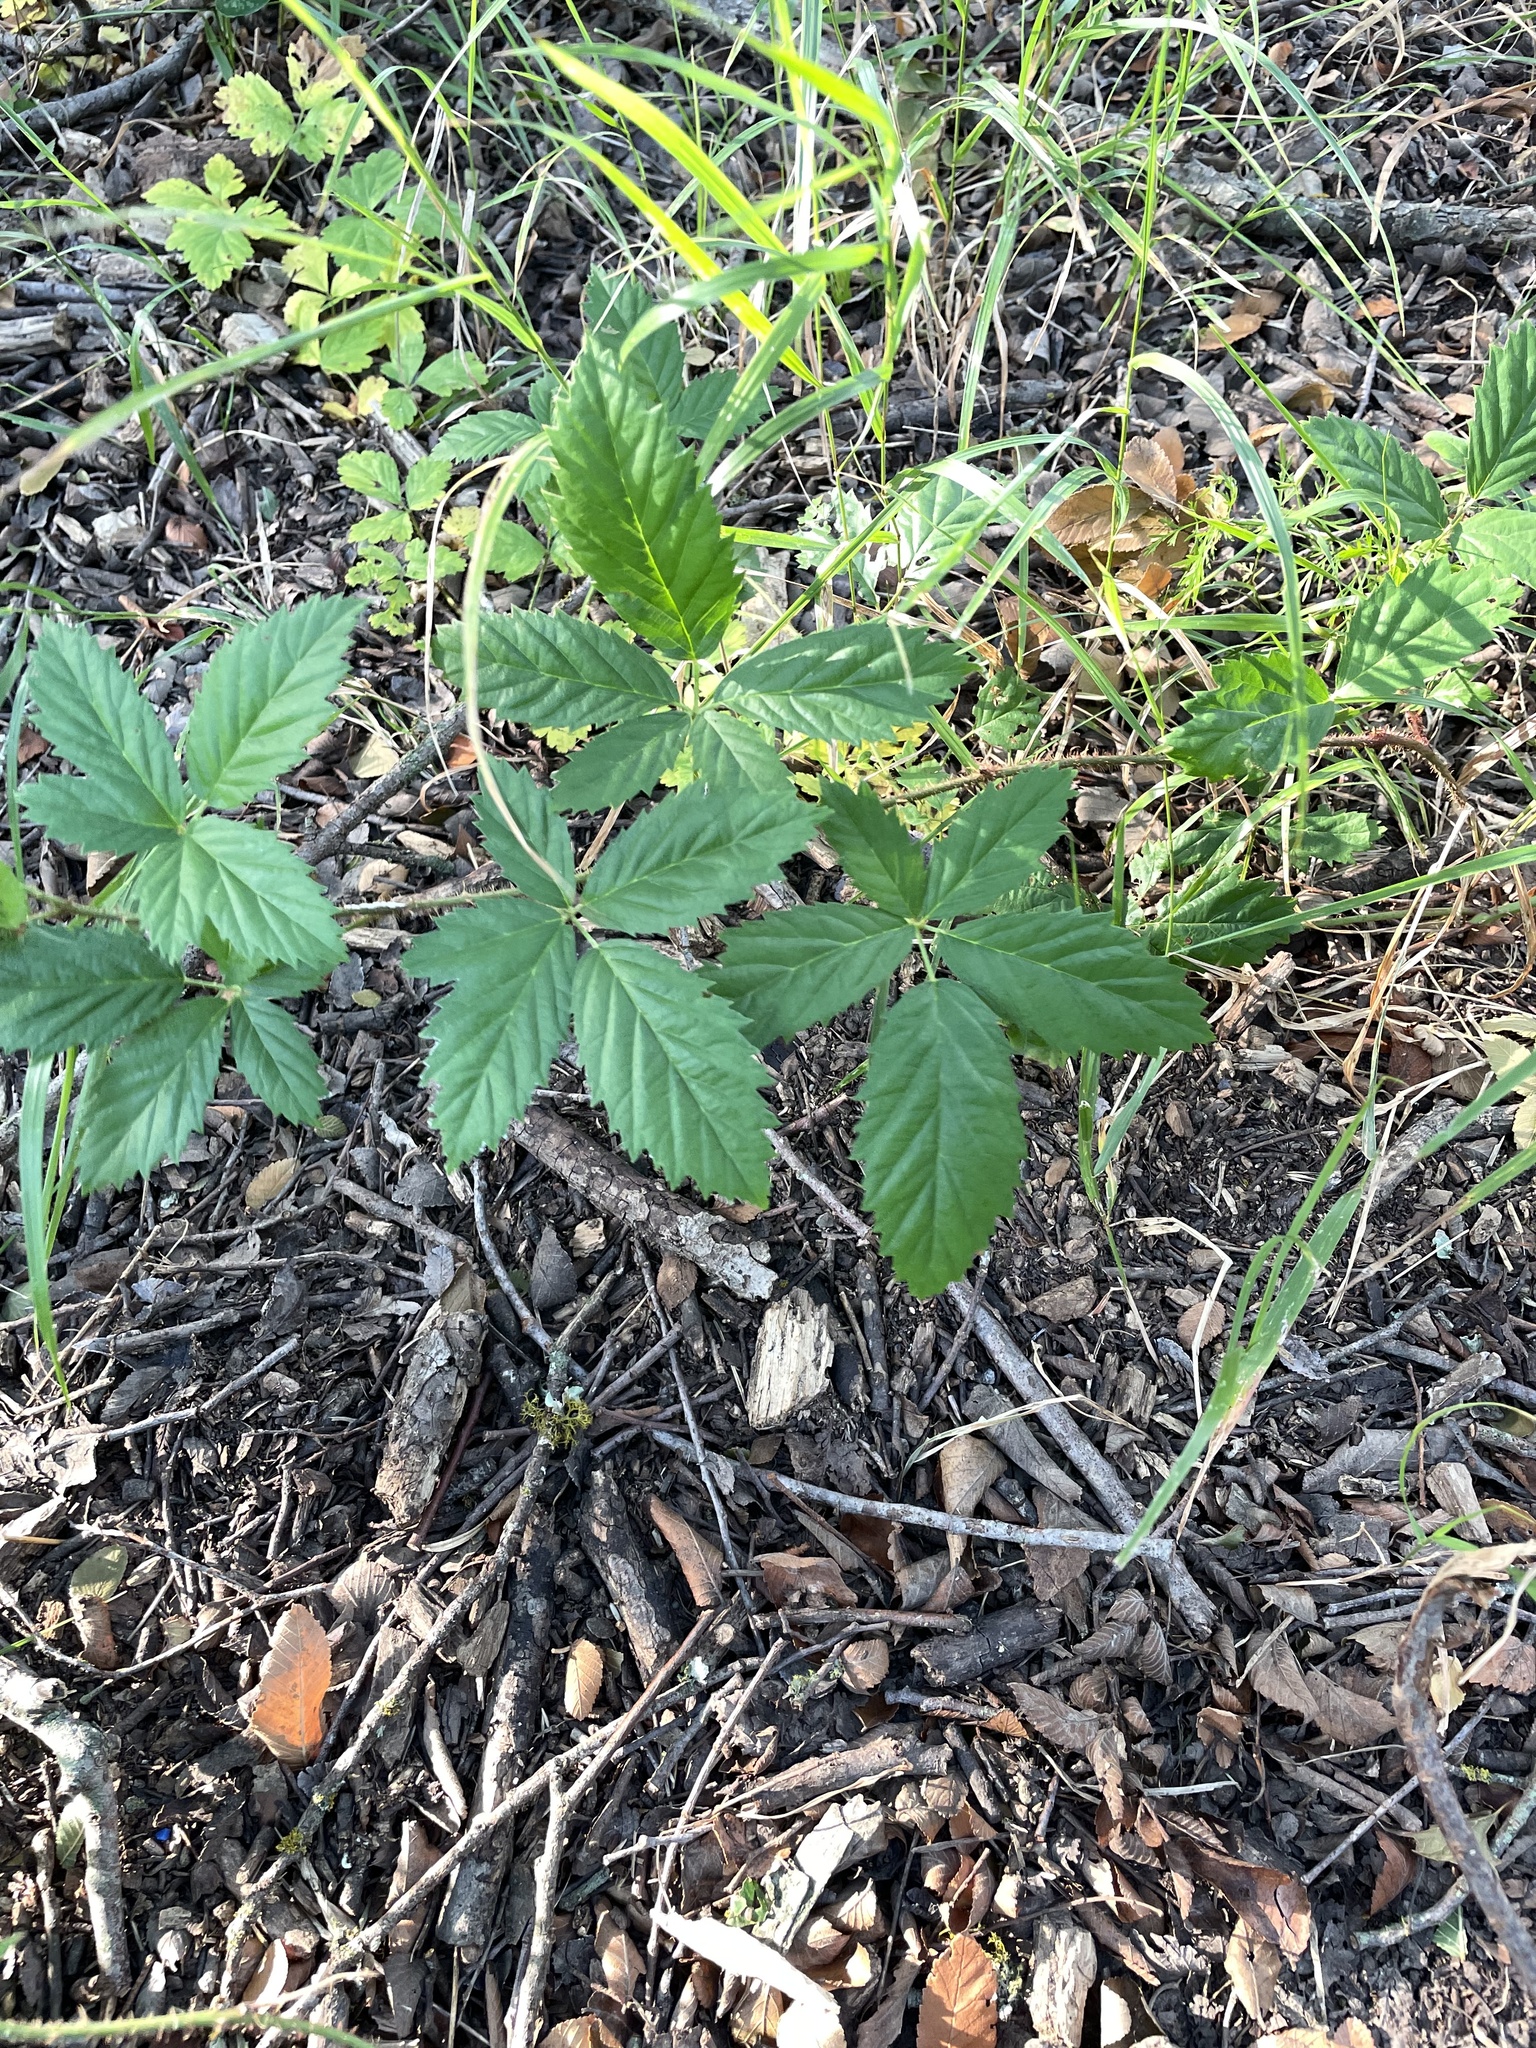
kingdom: Plantae
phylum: Tracheophyta
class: Magnoliopsida
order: Rosales
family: Rosaceae
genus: Rubus
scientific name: Rubus trivialis
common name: Southern dewberry
